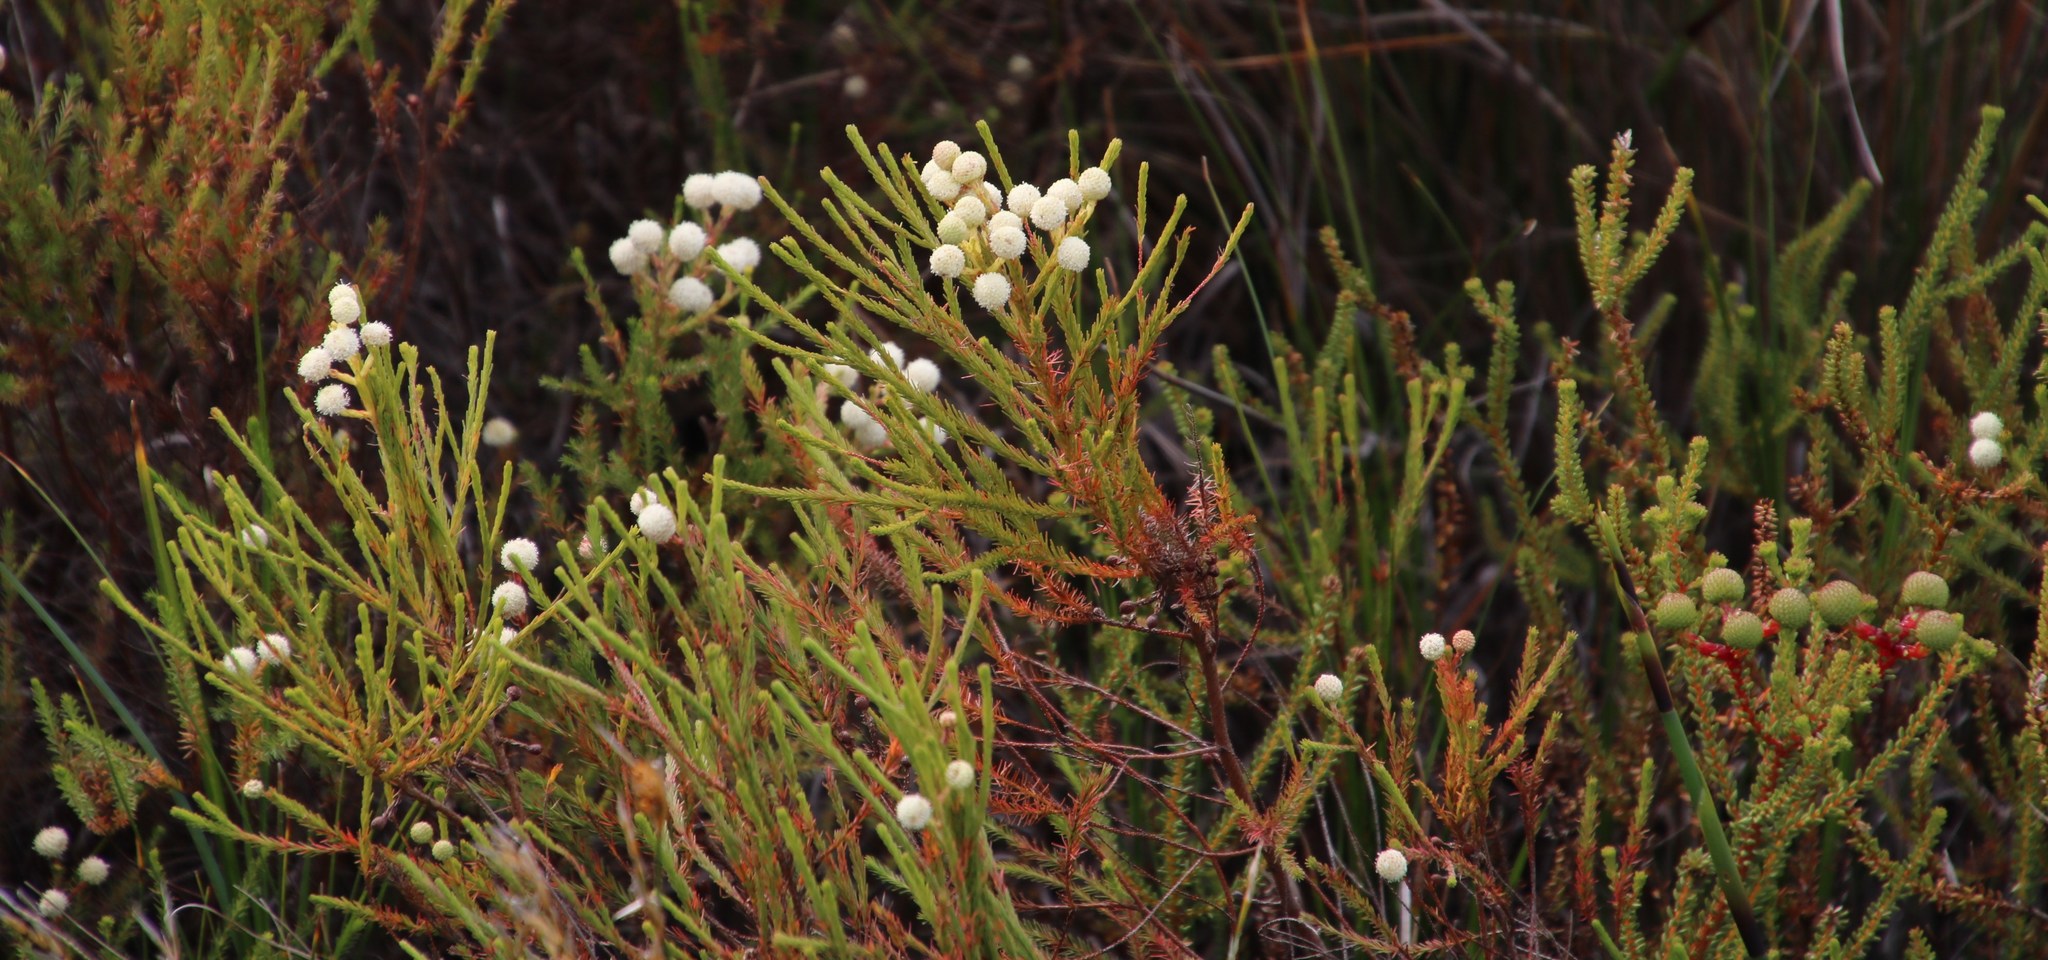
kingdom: Plantae
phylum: Tracheophyta
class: Magnoliopsida
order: Bruniales
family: Bruniaceae
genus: Berzelia
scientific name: Berzelia lanuginosa
